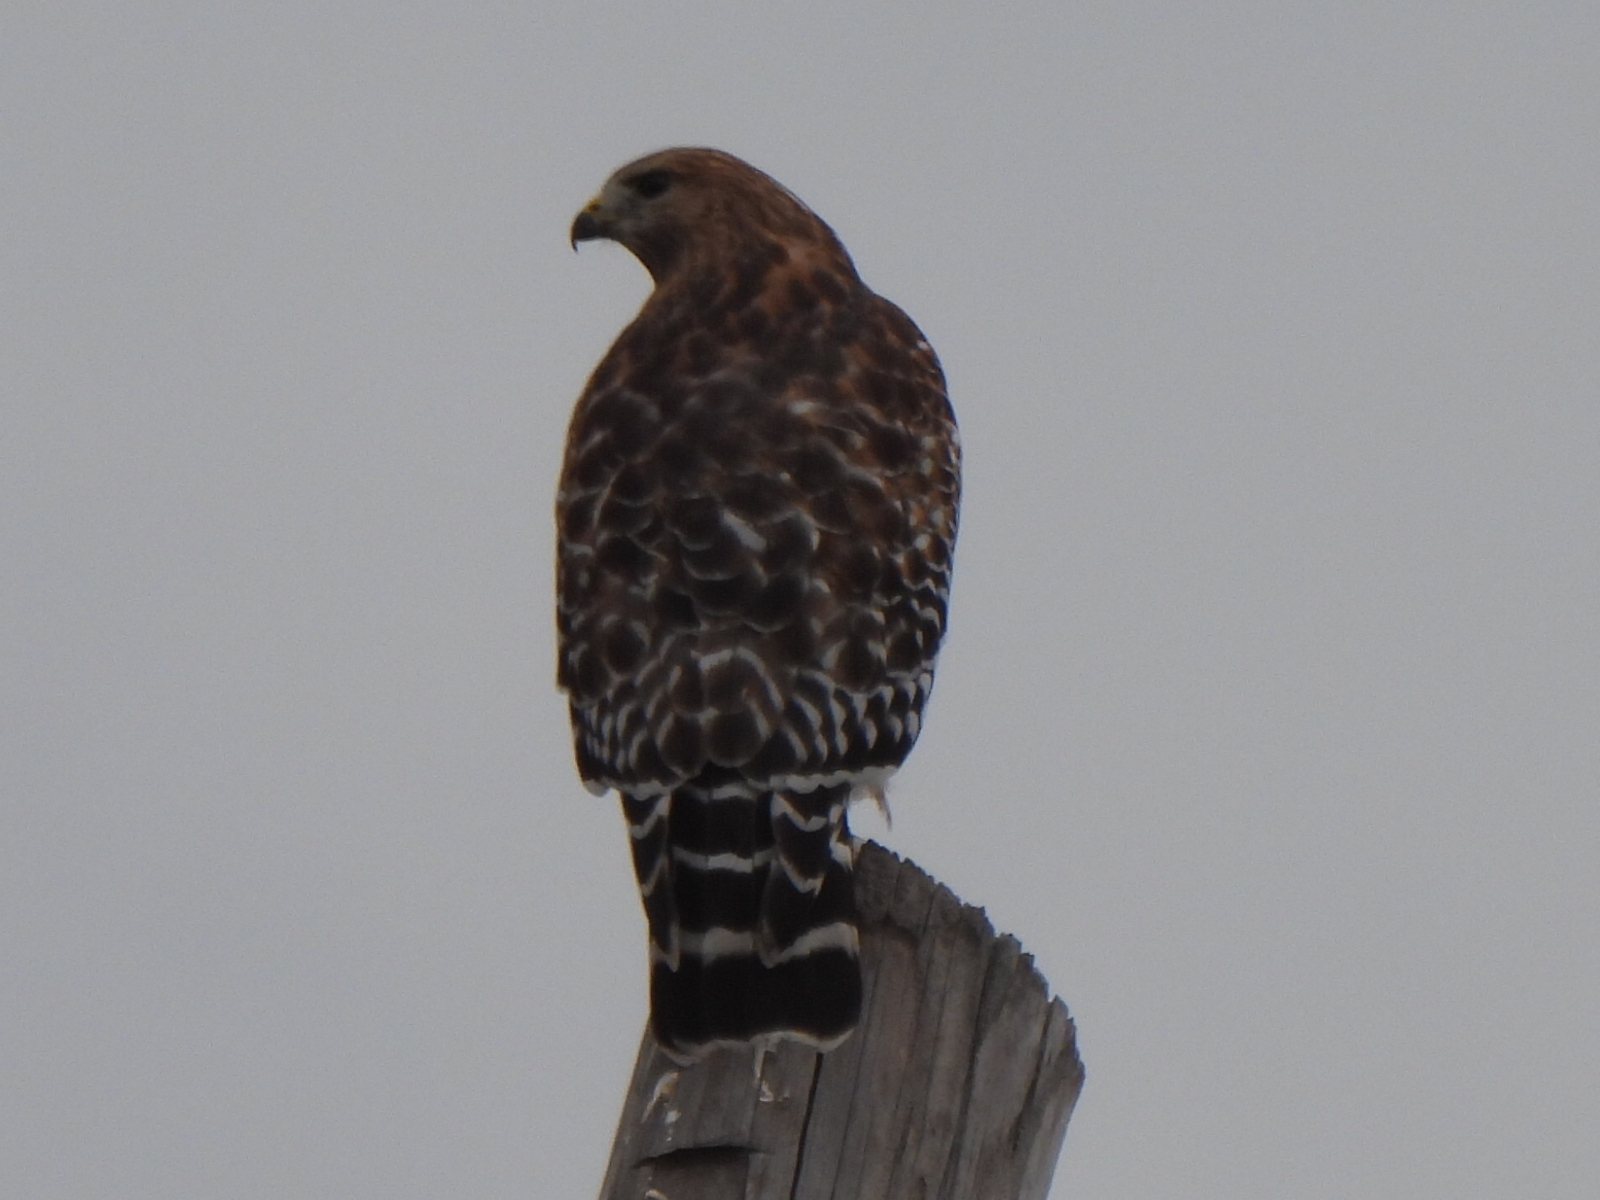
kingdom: Animalia
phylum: Chordata
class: Aves
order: Accipitriformes
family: Accipitridae
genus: Buteo
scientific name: Buteo lineatus
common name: Red-shouldered hawk
